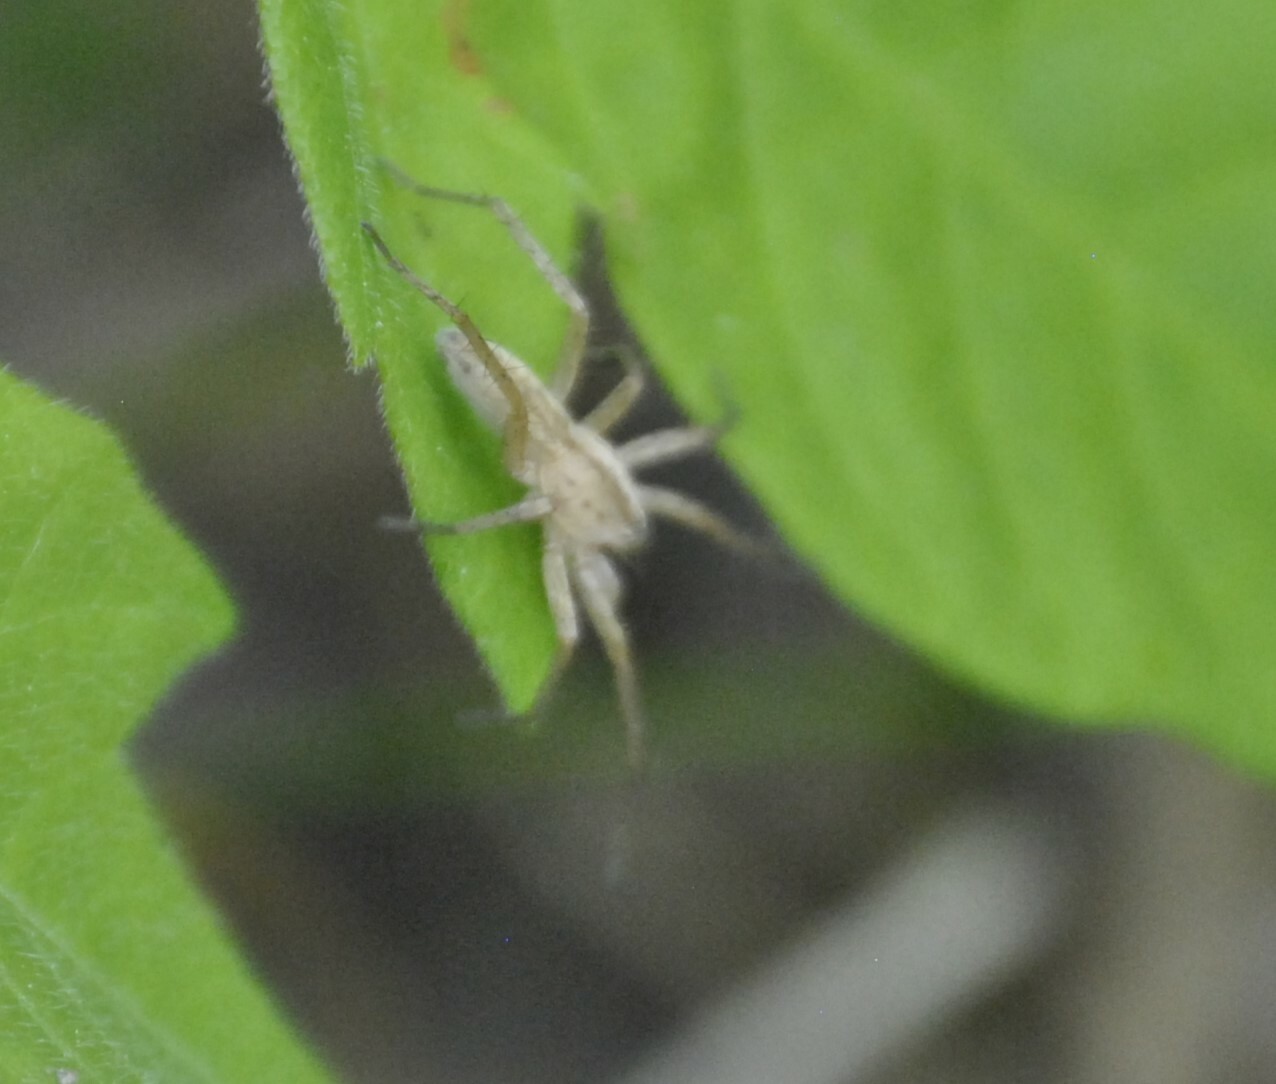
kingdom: Animalia
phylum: Arthropoda
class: Arachnida
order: Araneae
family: Anyphaenidae
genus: Arachosia
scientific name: Arachosia cubana
